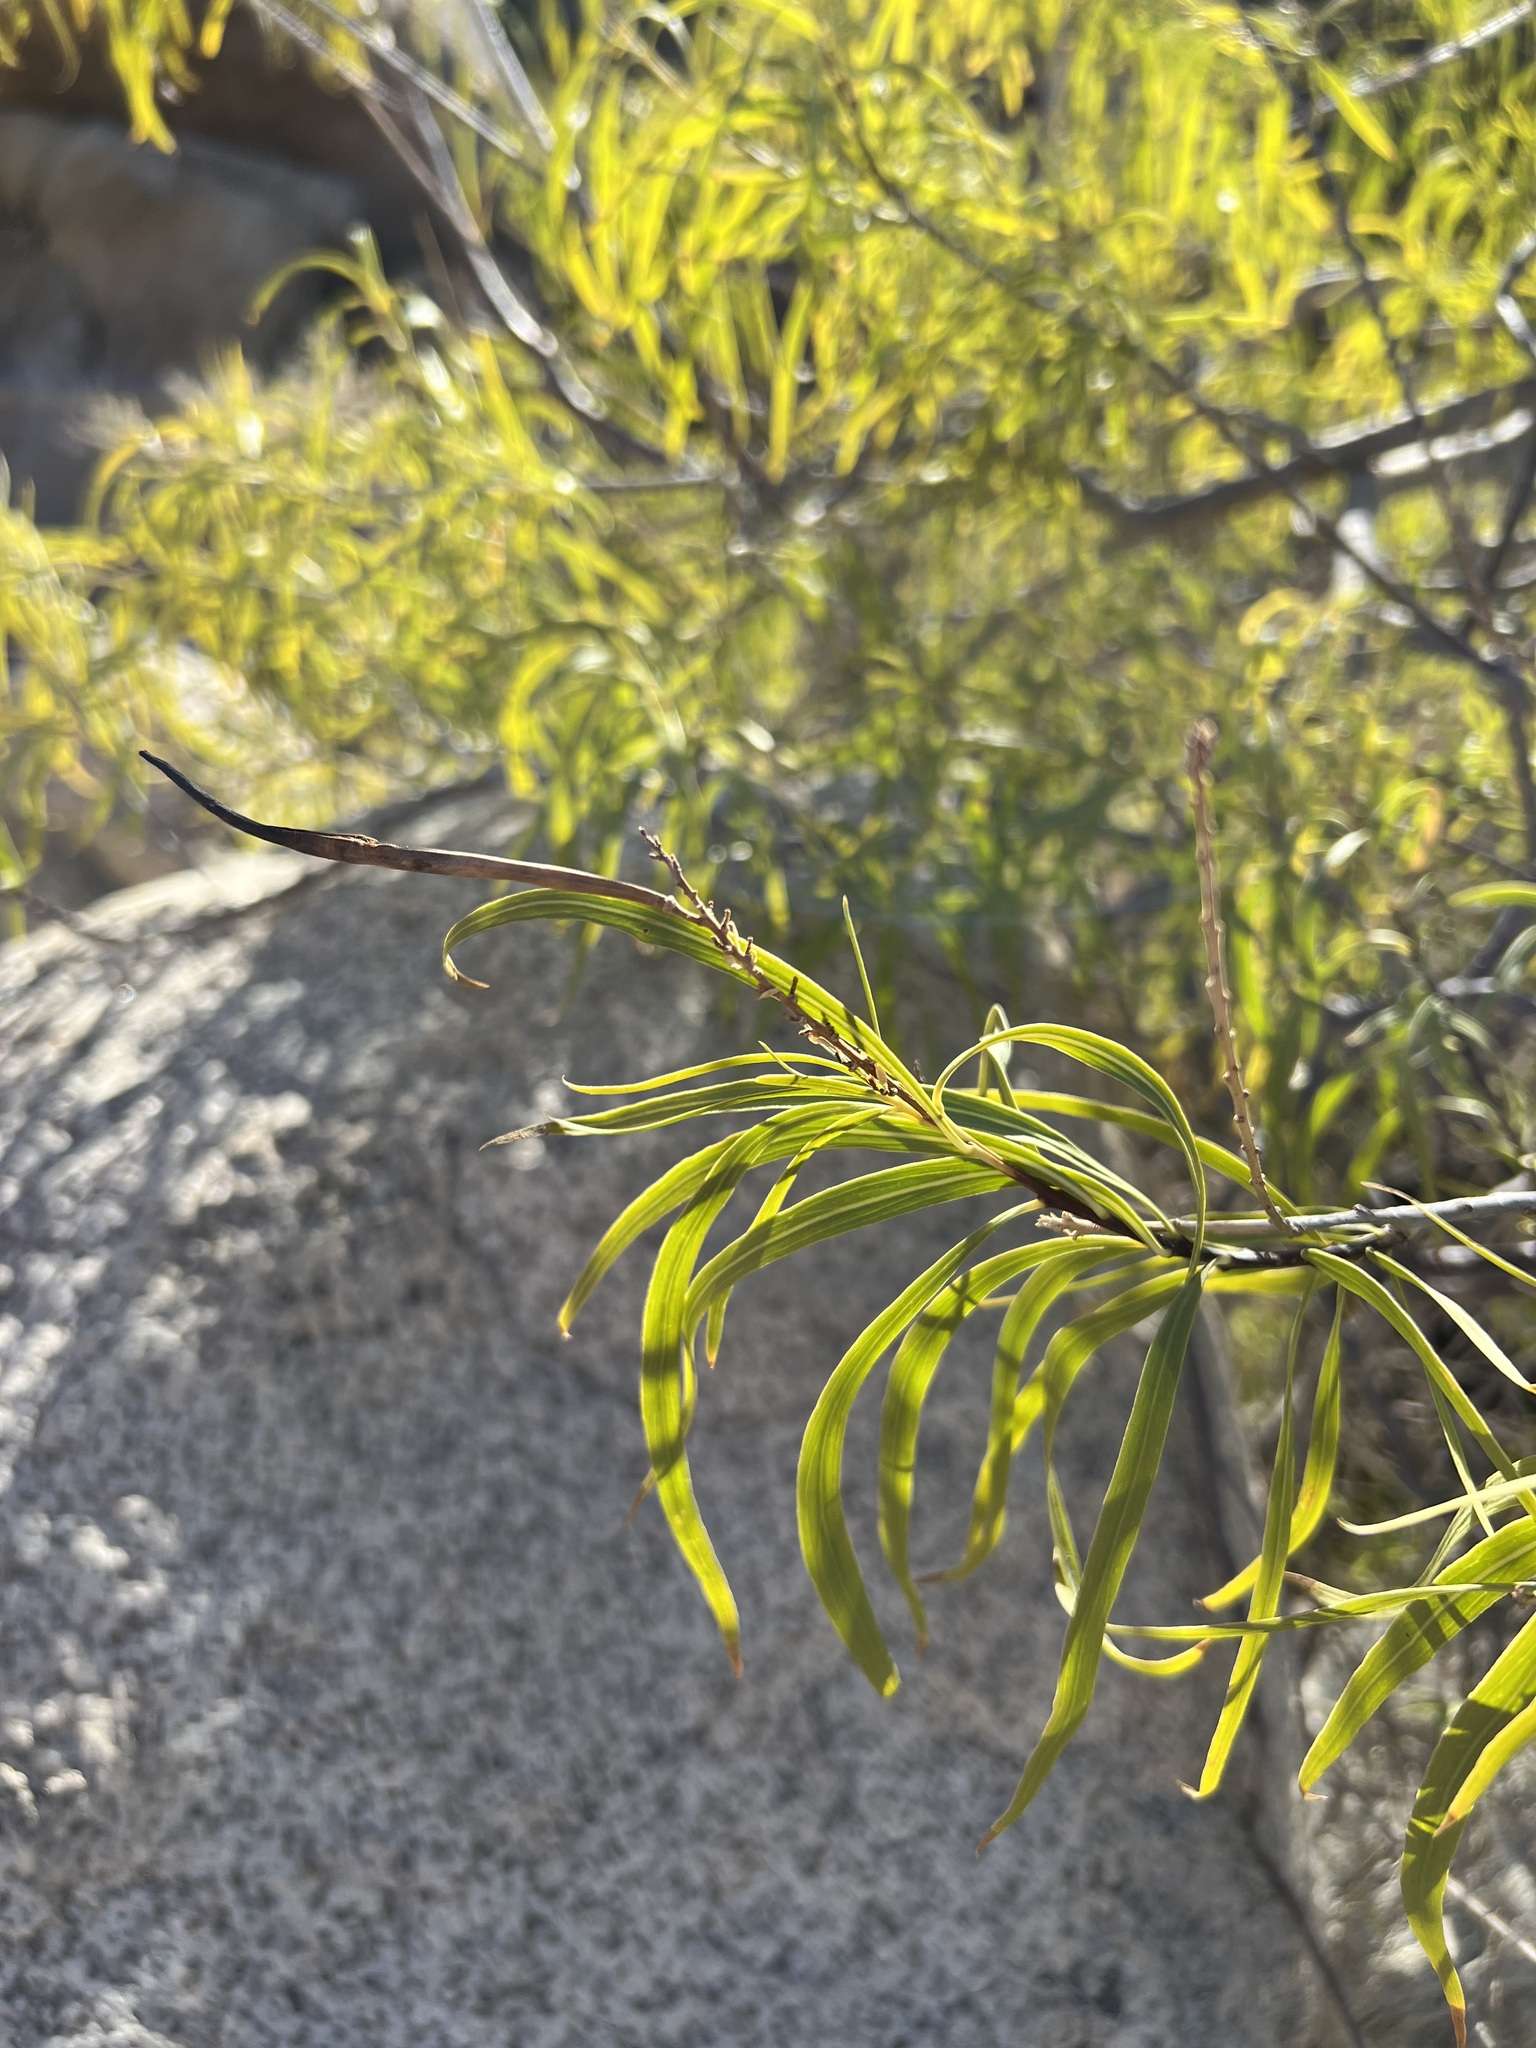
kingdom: Plantae
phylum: Tracheophyta
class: Magnoliopsida
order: Lamiales
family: Bignoniaceae
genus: Chilopsis
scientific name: Chilopsis linearis
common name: Desert-willow
